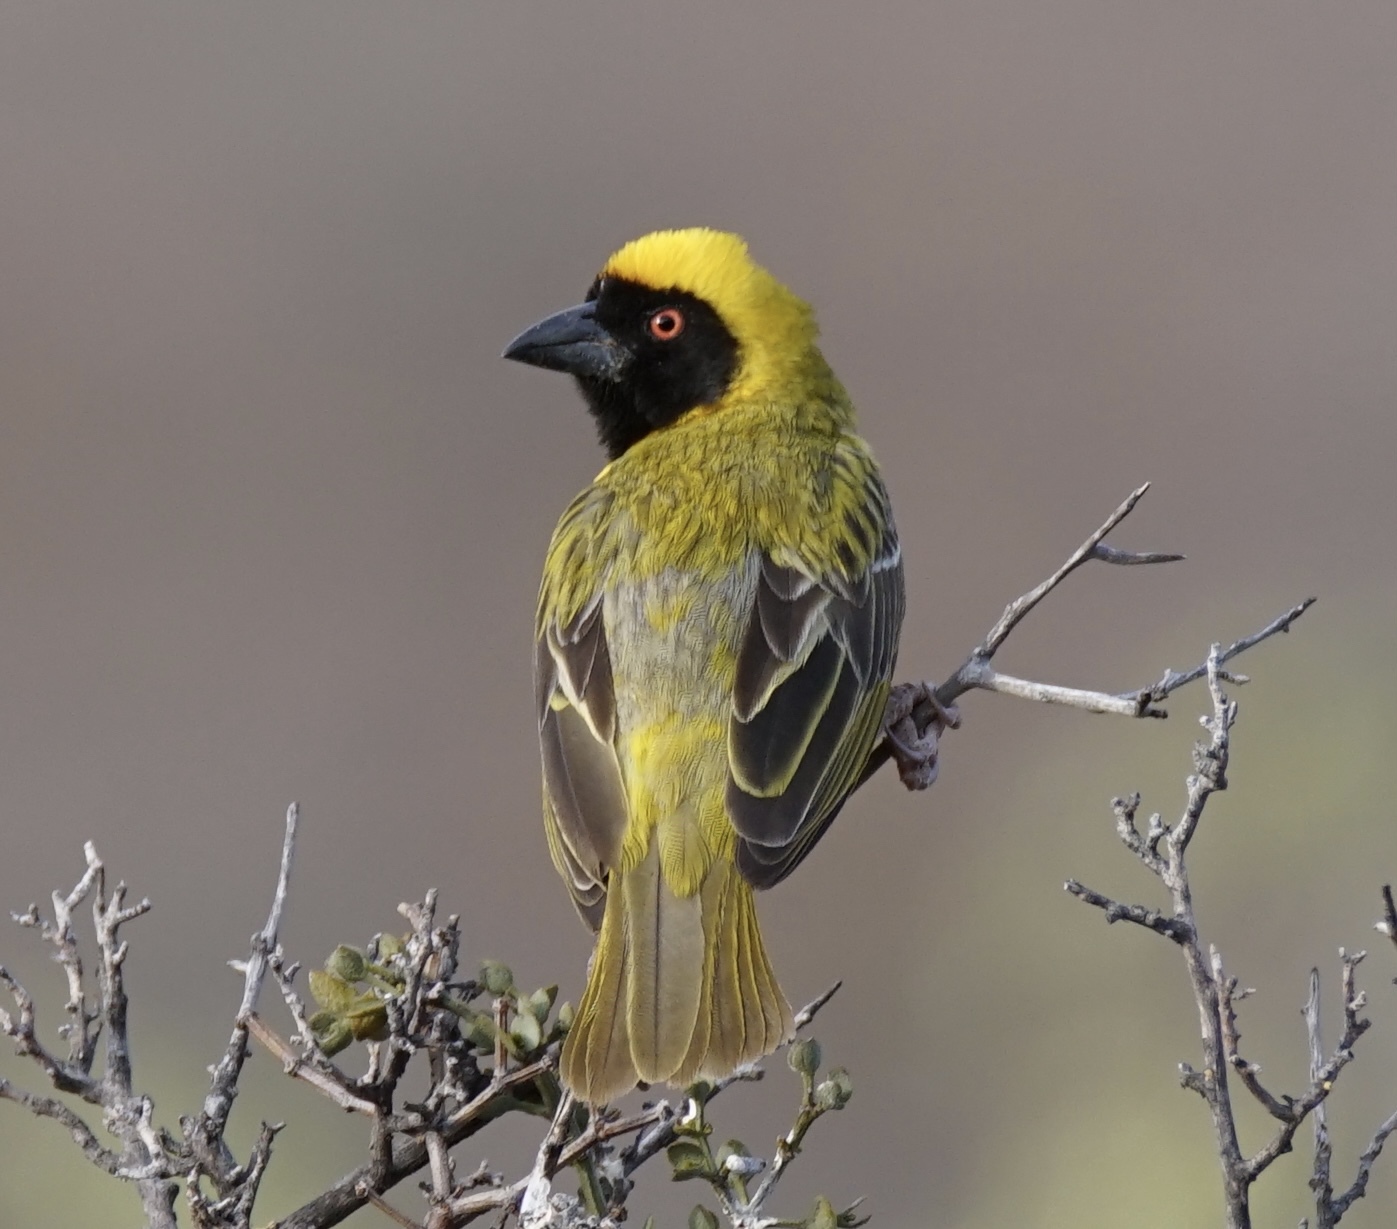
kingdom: Animalia
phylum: Chordata
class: Aves
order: Passeriformes
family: Ploceidae
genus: Ploceus
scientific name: Ploceus velatus
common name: Southern masked weaver
